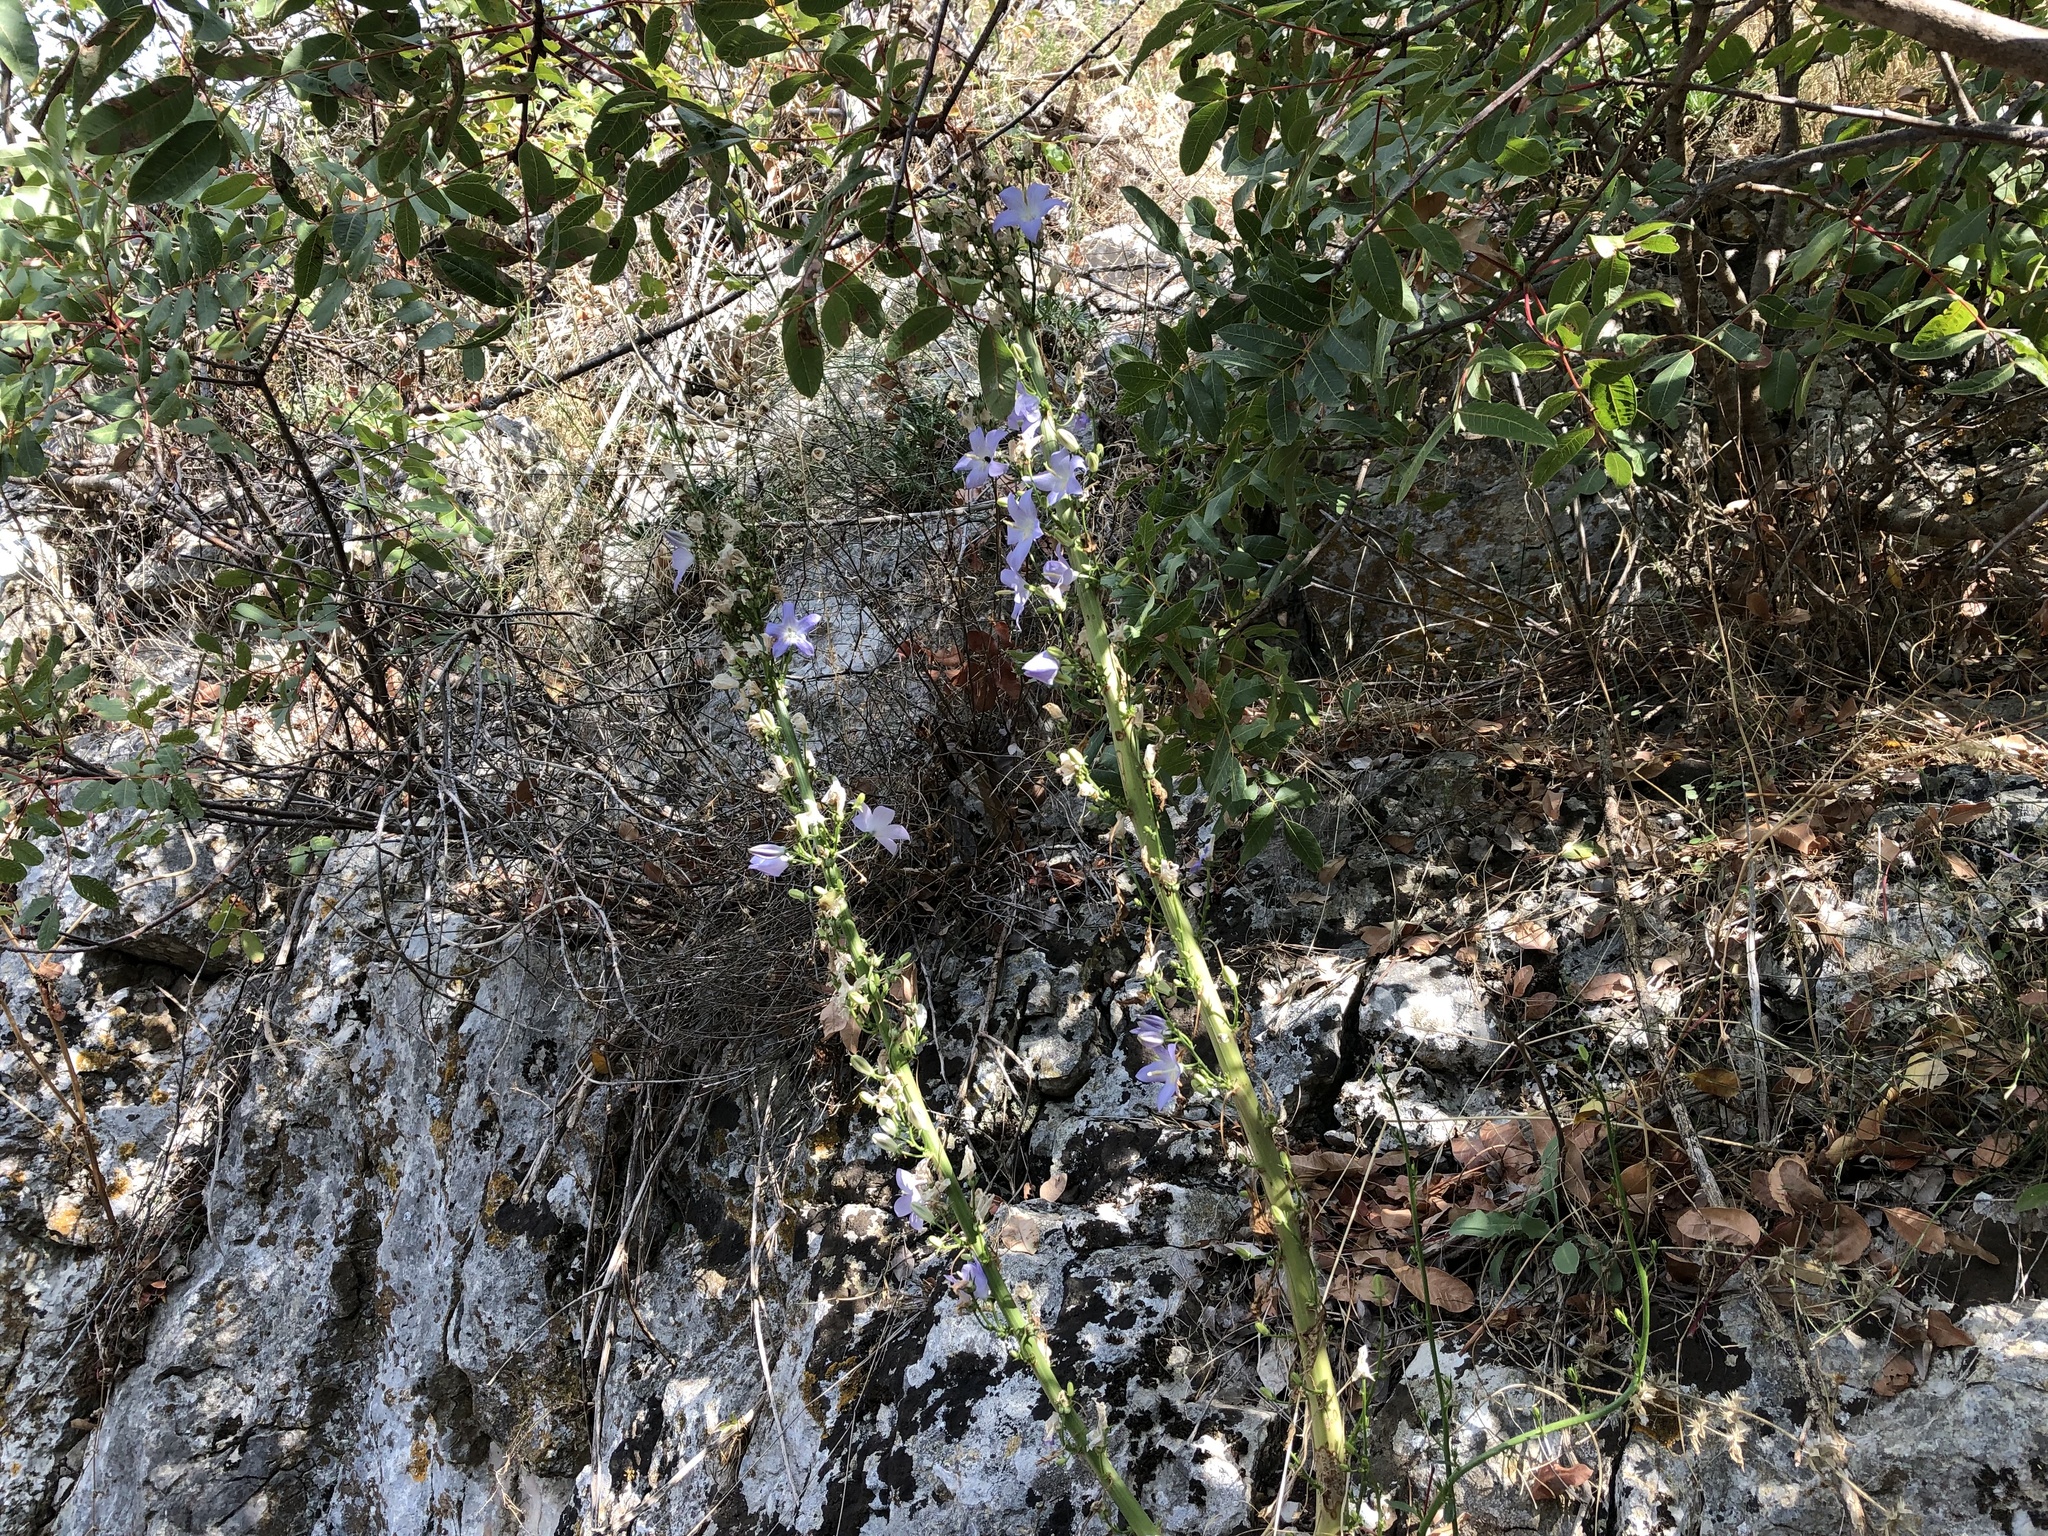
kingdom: Plantae
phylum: Tracheophyta
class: Magnoliopsida
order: Asterales
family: Campanulaceae
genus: Campanula
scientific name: Campanula pyramidalis
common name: Chimney bellflower
